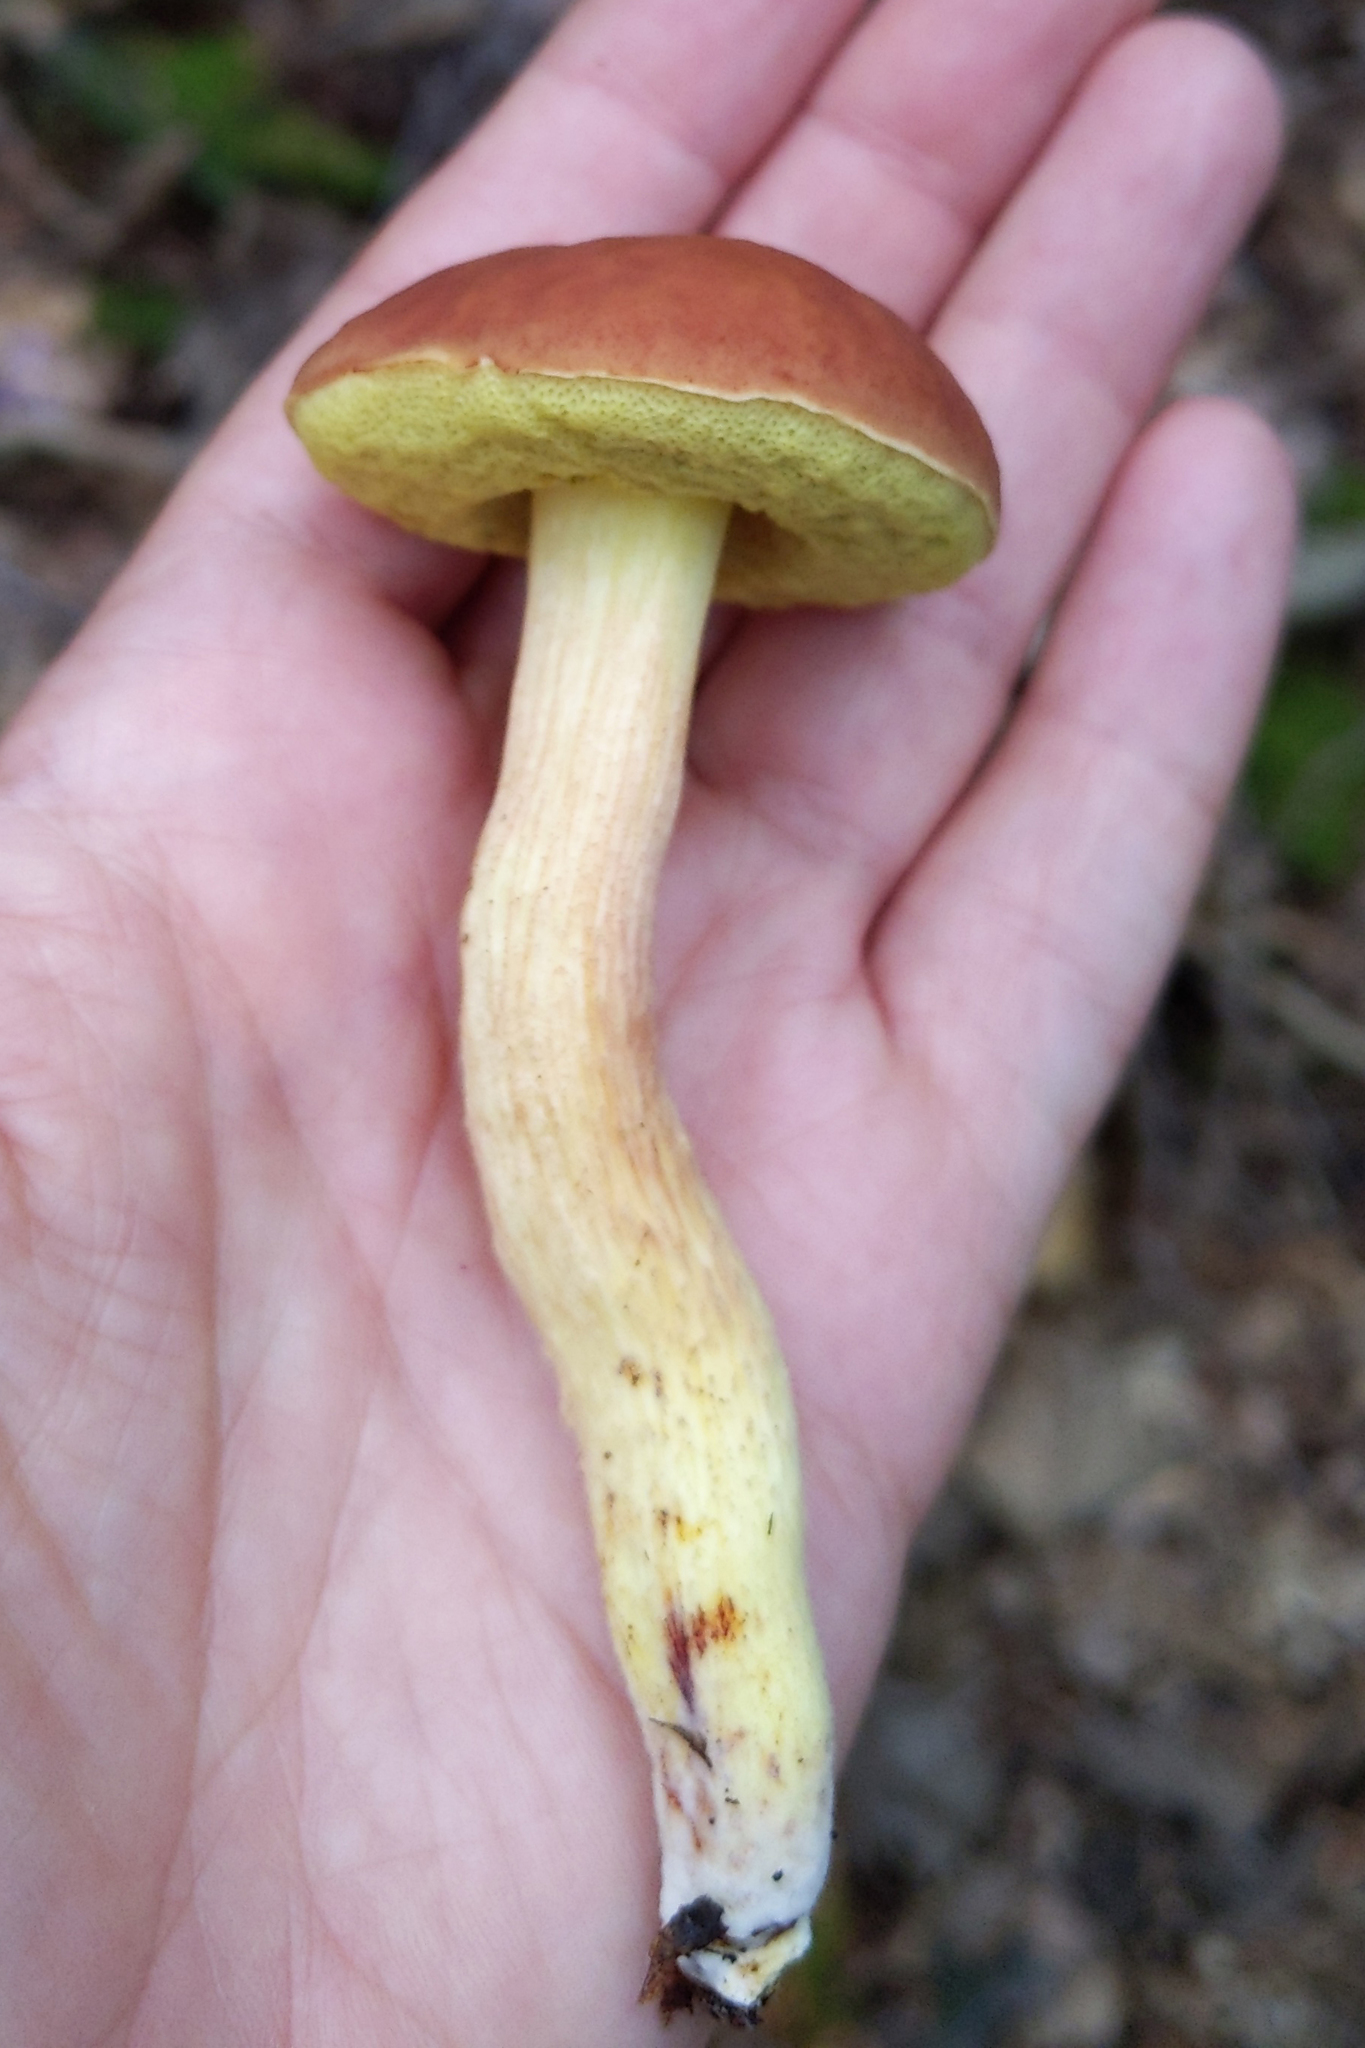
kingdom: Fungi
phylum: Basidiomycota
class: Agaricomycetes
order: Boletales
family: Boletaceae
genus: Hemileccinum
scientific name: Hemileccinum subglabripes
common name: Smoothish-stemmed bolete
